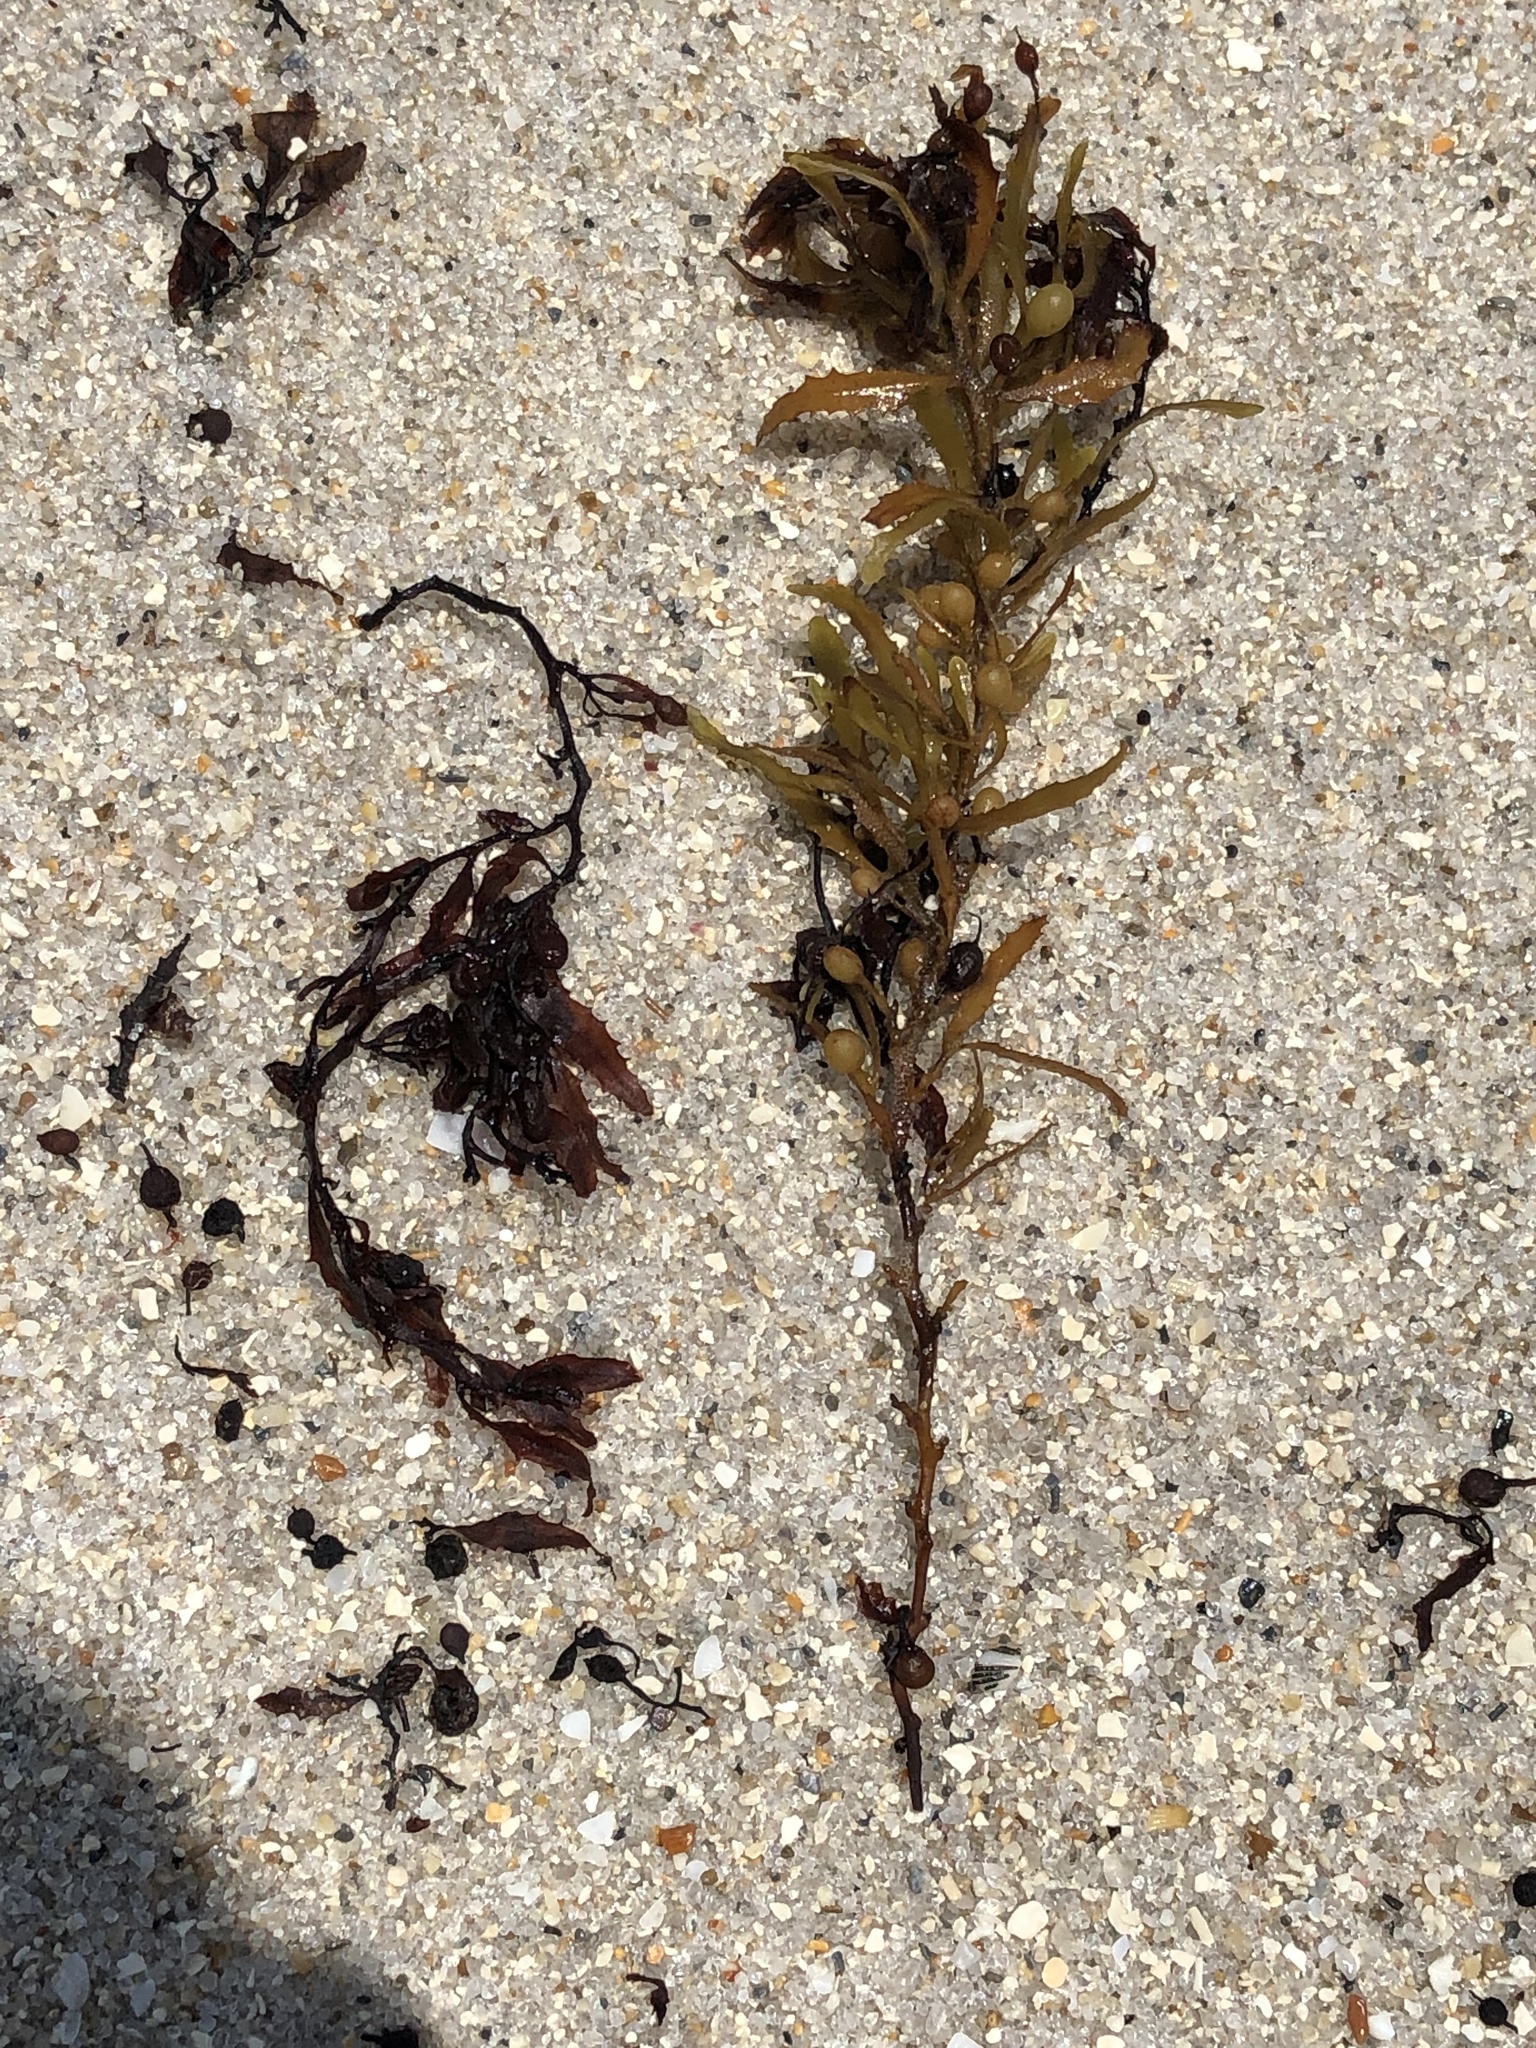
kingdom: Chromista
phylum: Ochrophyta
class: Phaeophyceae
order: Fucales
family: Sargassaceae
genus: Sargassum
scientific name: Sargassum fluitans
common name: Sargassum seaweed
